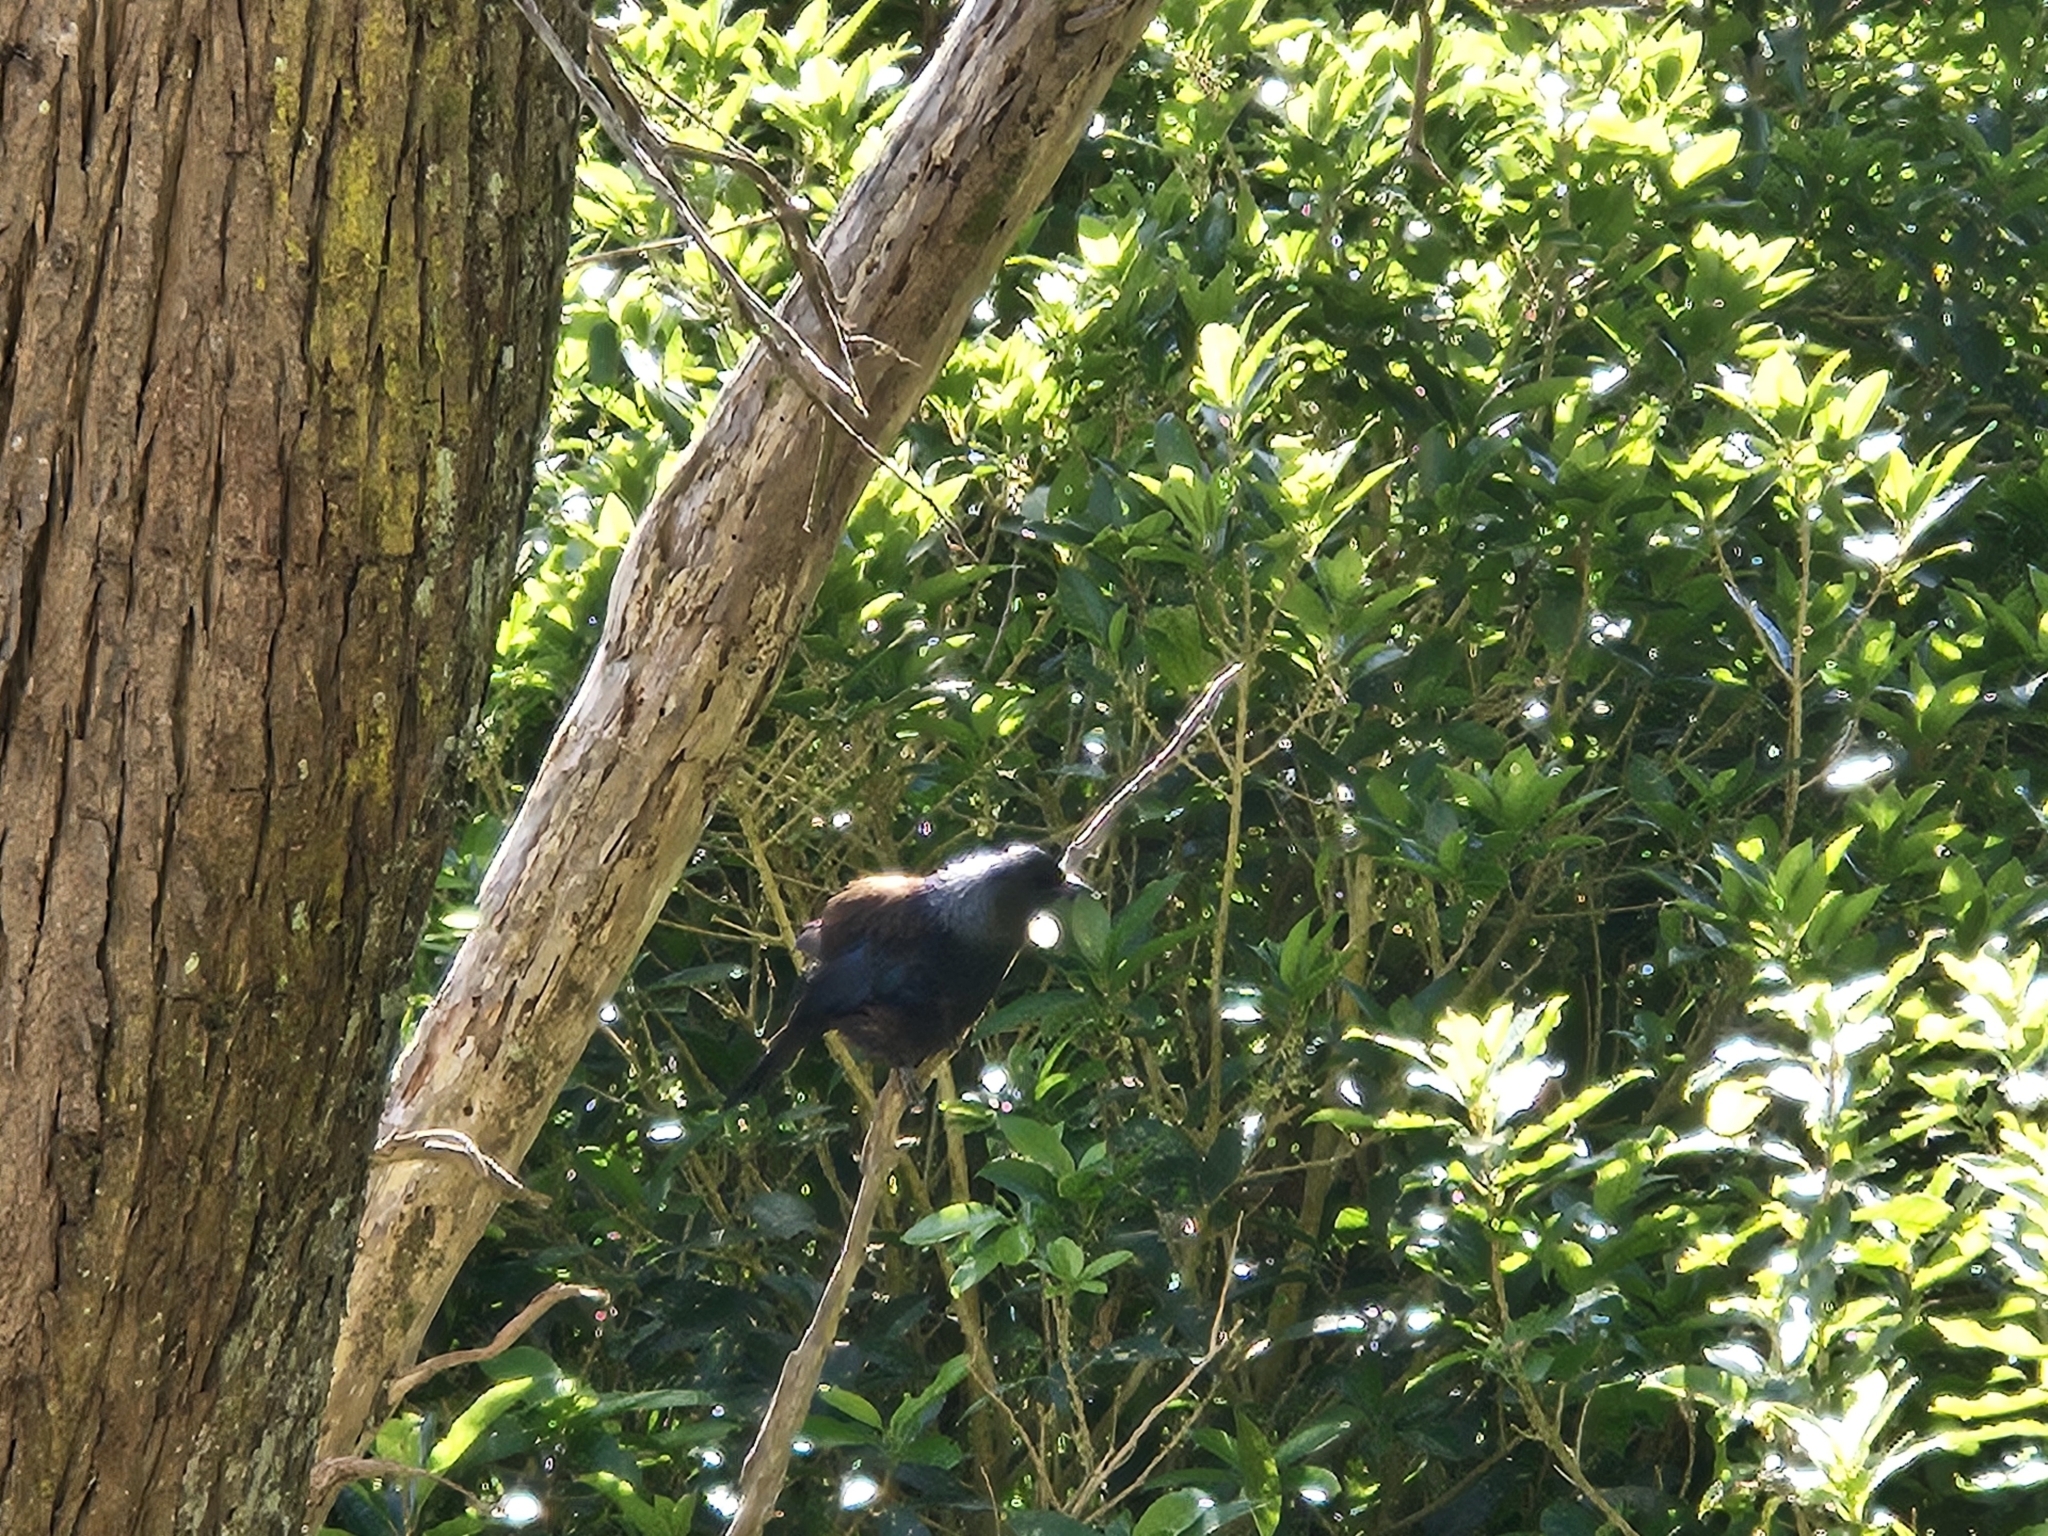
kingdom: Animalia
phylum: Chordata
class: Aves
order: Passeriformes
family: Meliphagidae
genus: Prosthemadera
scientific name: Prosthemadera novaeseelandiae
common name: Tui
